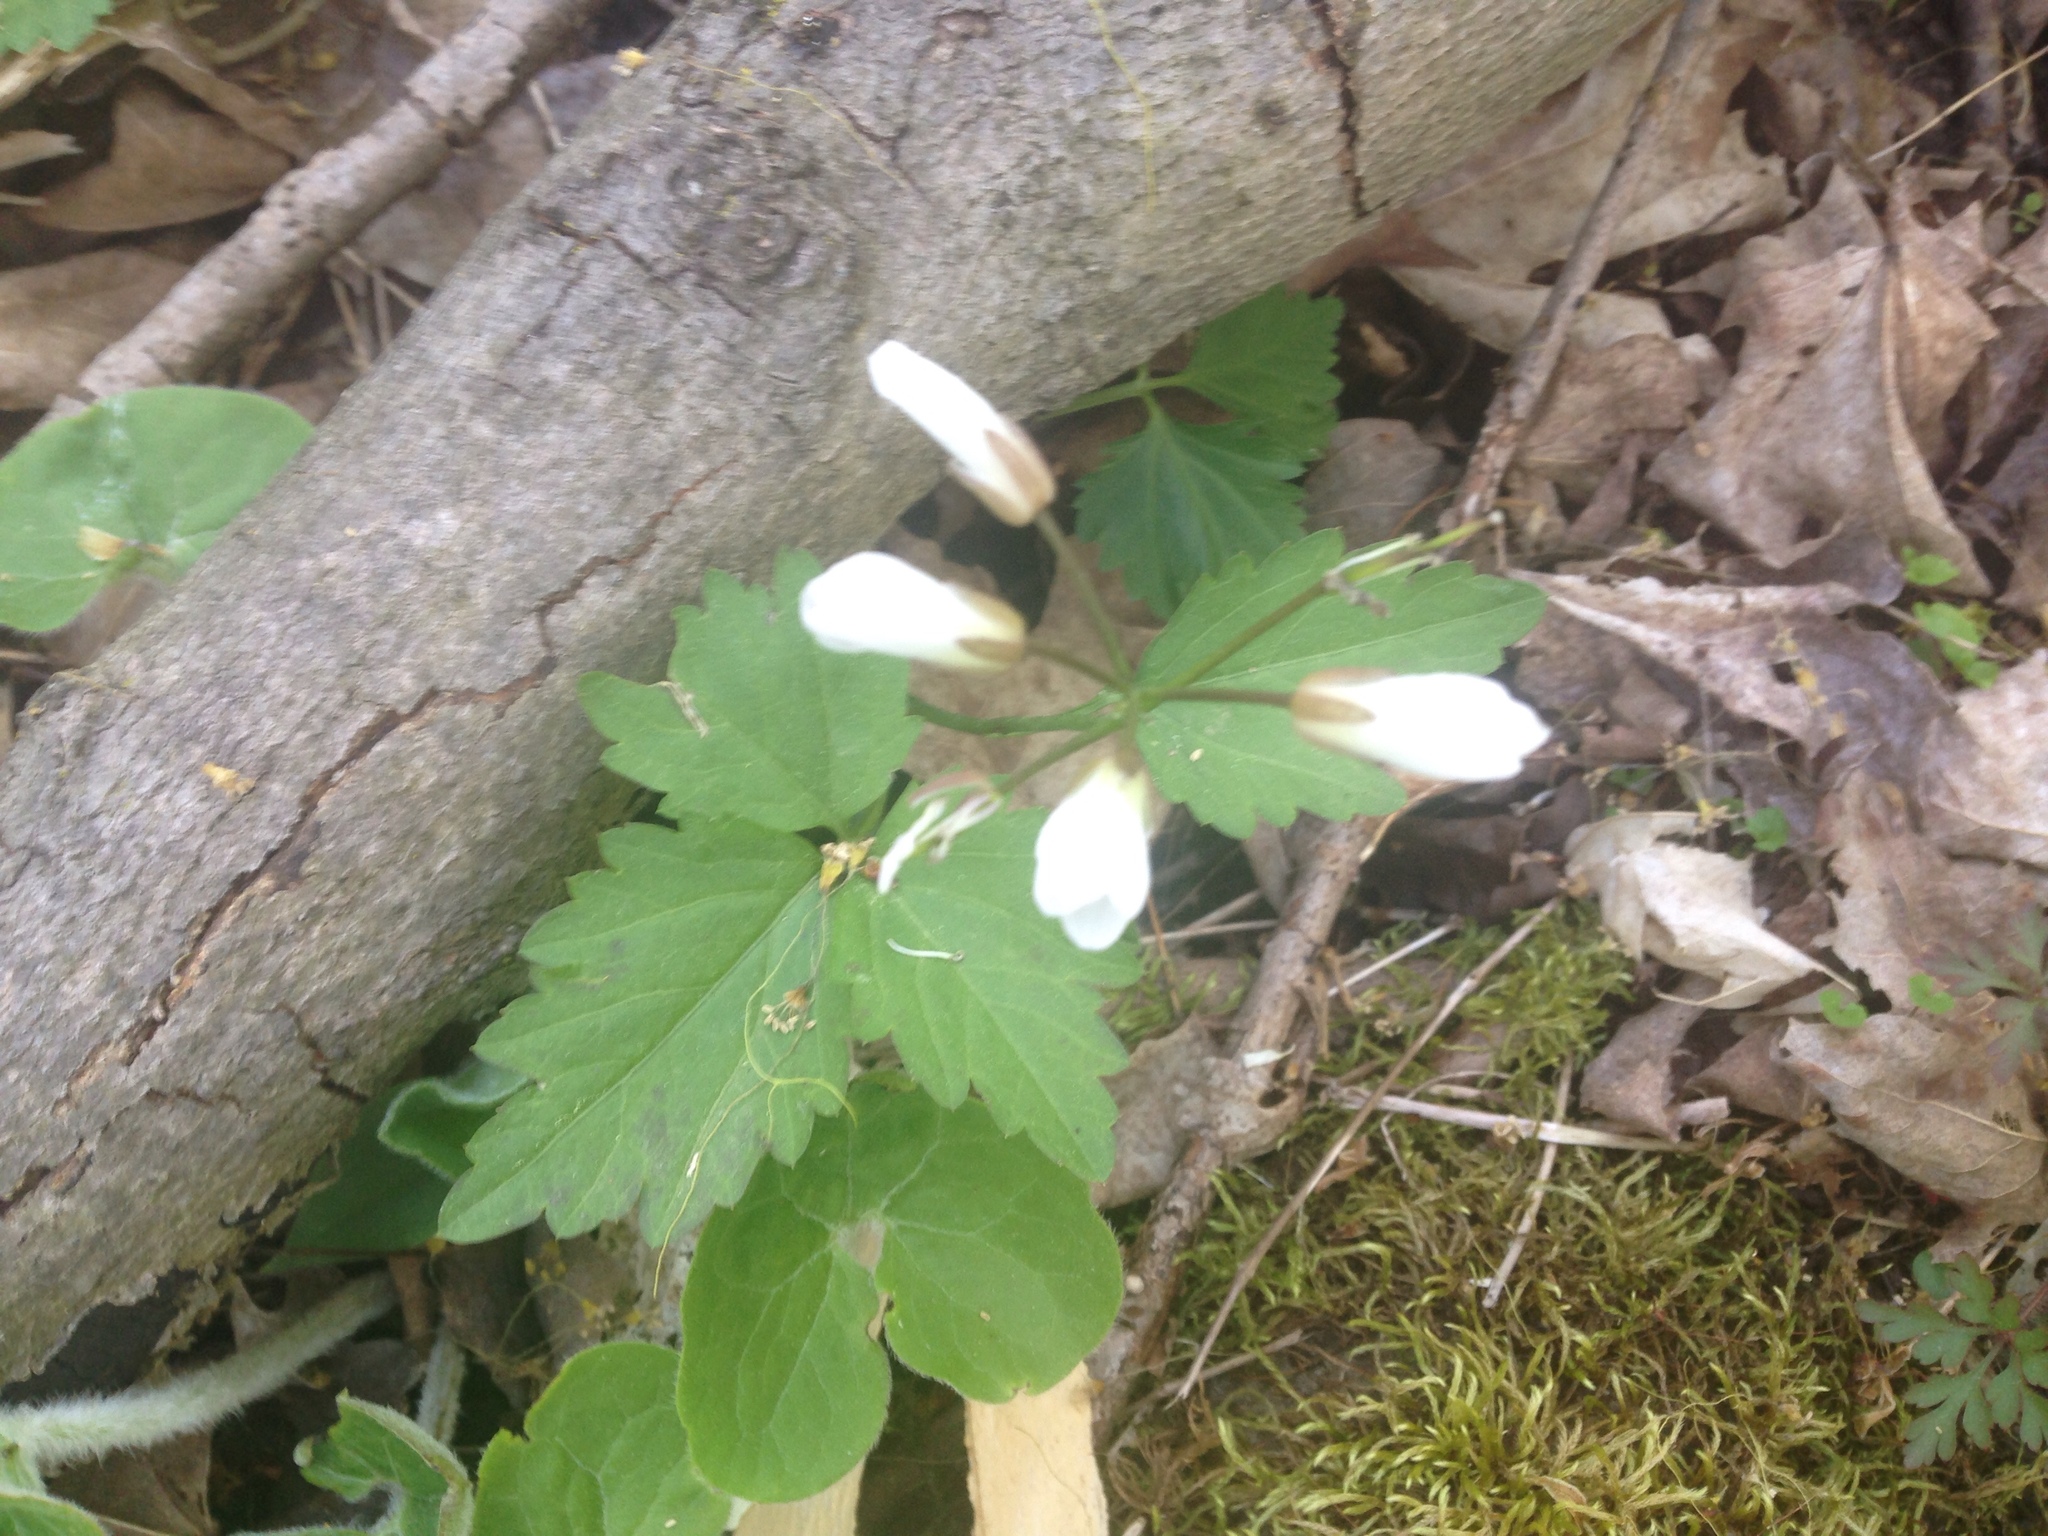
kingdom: Plantae
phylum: Tracheophyta
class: Magnoliopsida
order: Brassicales
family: Brassicaceae
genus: Cardamine
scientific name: Cardamine diphylla
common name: Broad-leaved toothwort
